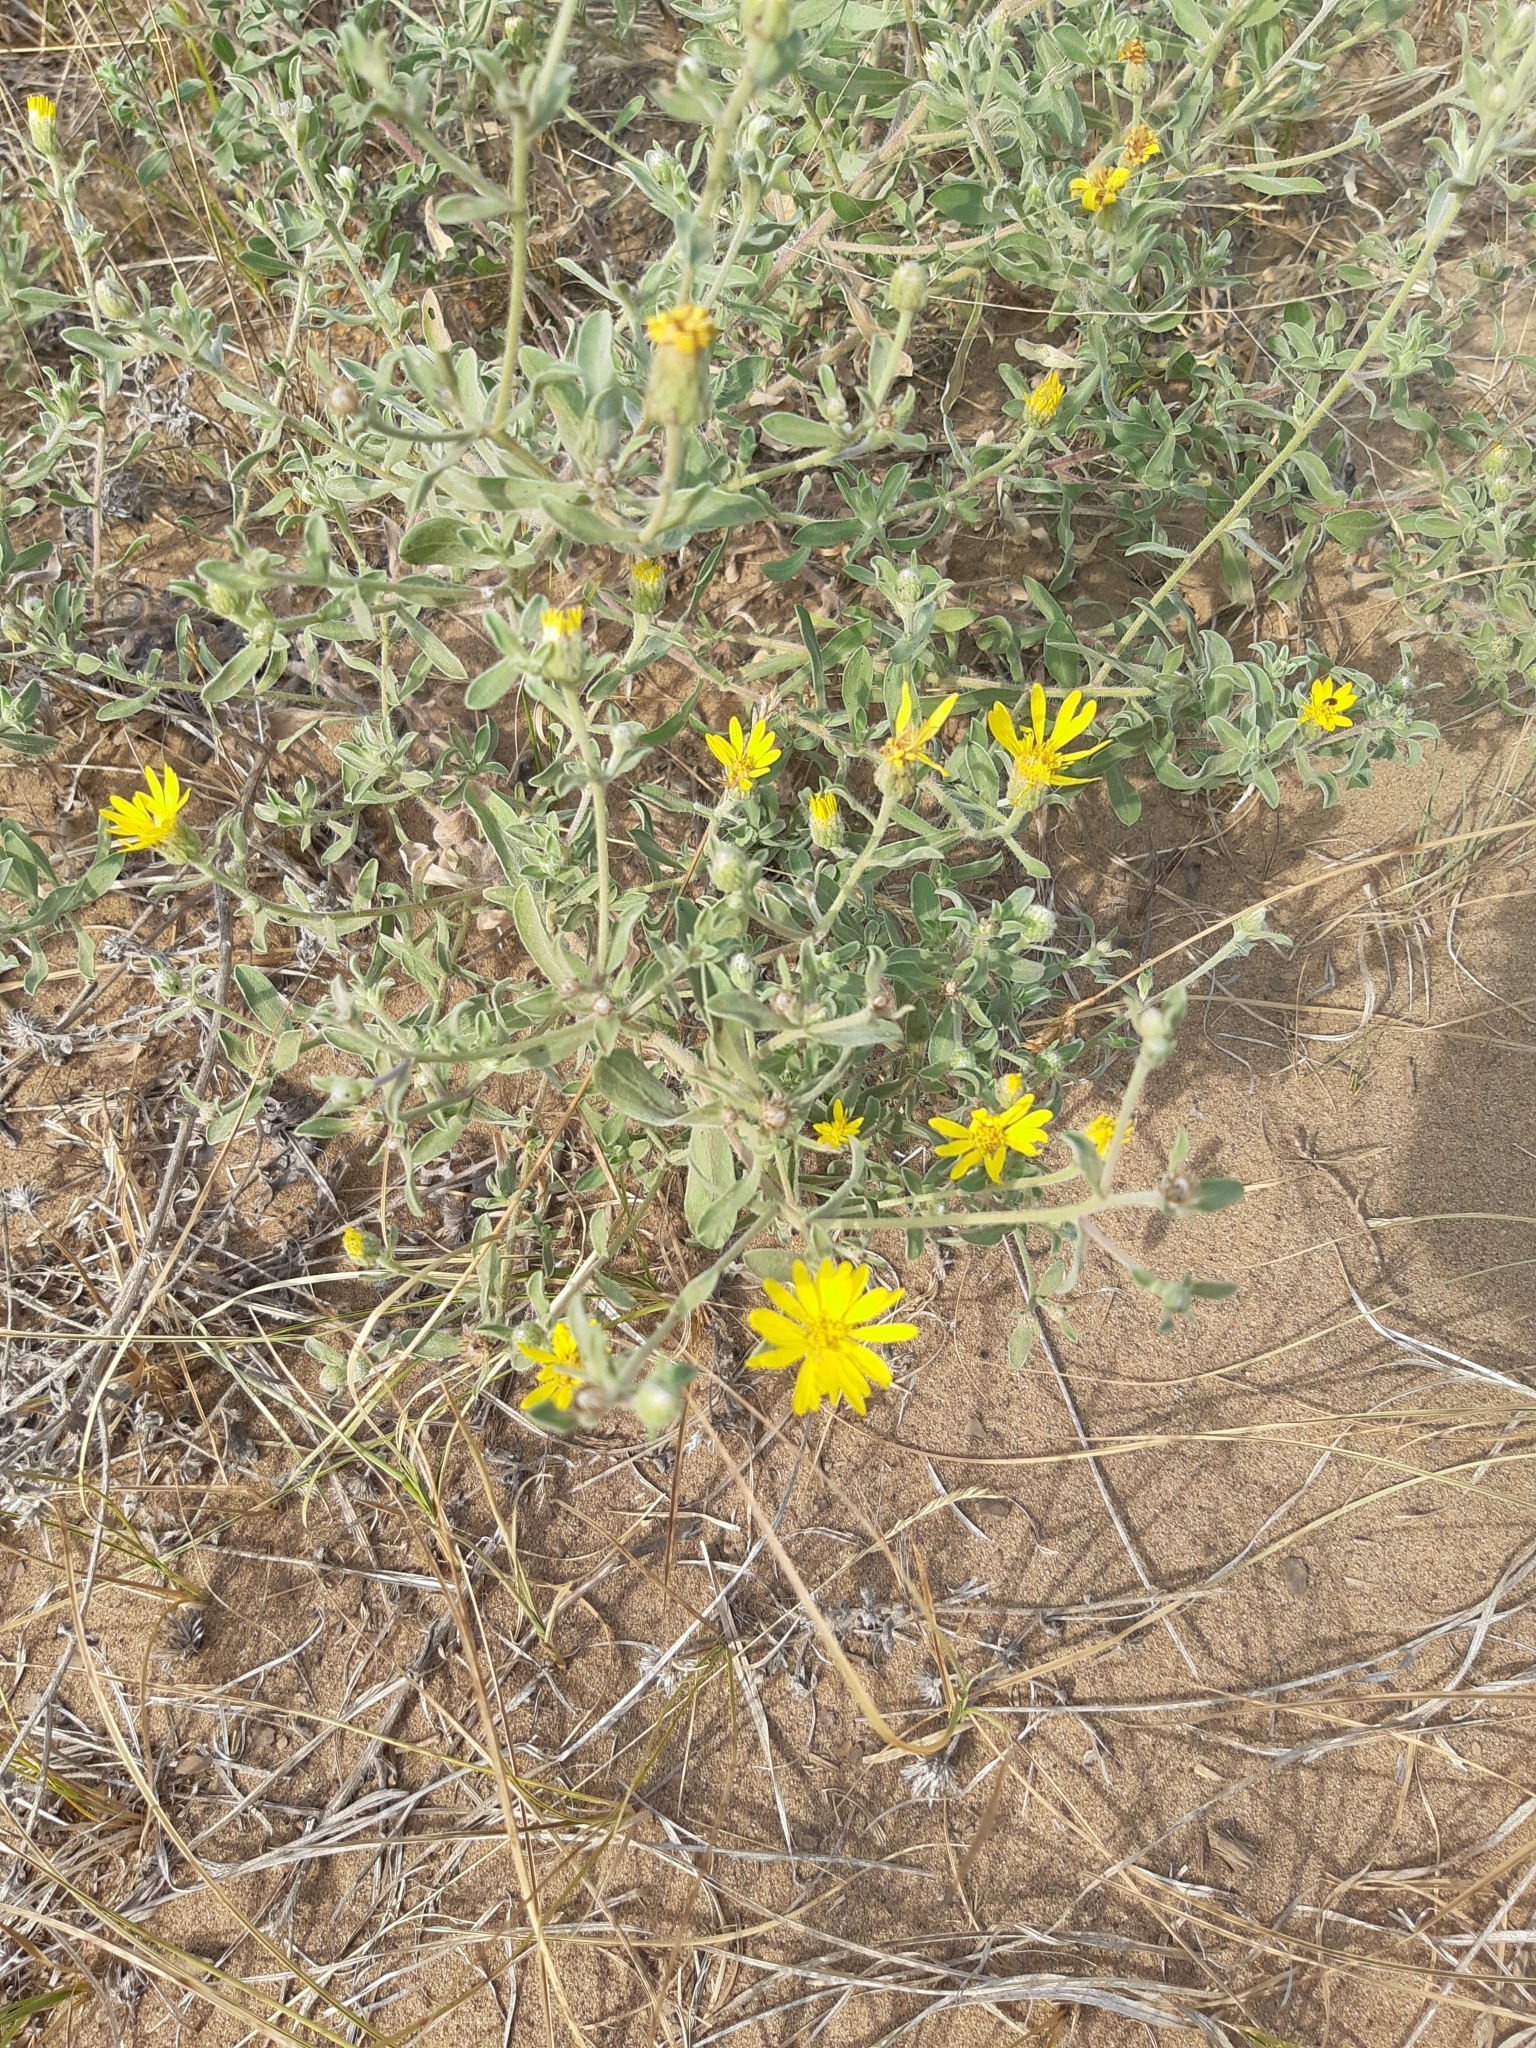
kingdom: Plantae
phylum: Tracheophyta
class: Magnoliopsida
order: Asterales
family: Asteraceae
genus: Heterotheca
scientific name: Heterotheca villosa
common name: Hairy false goldenaster
